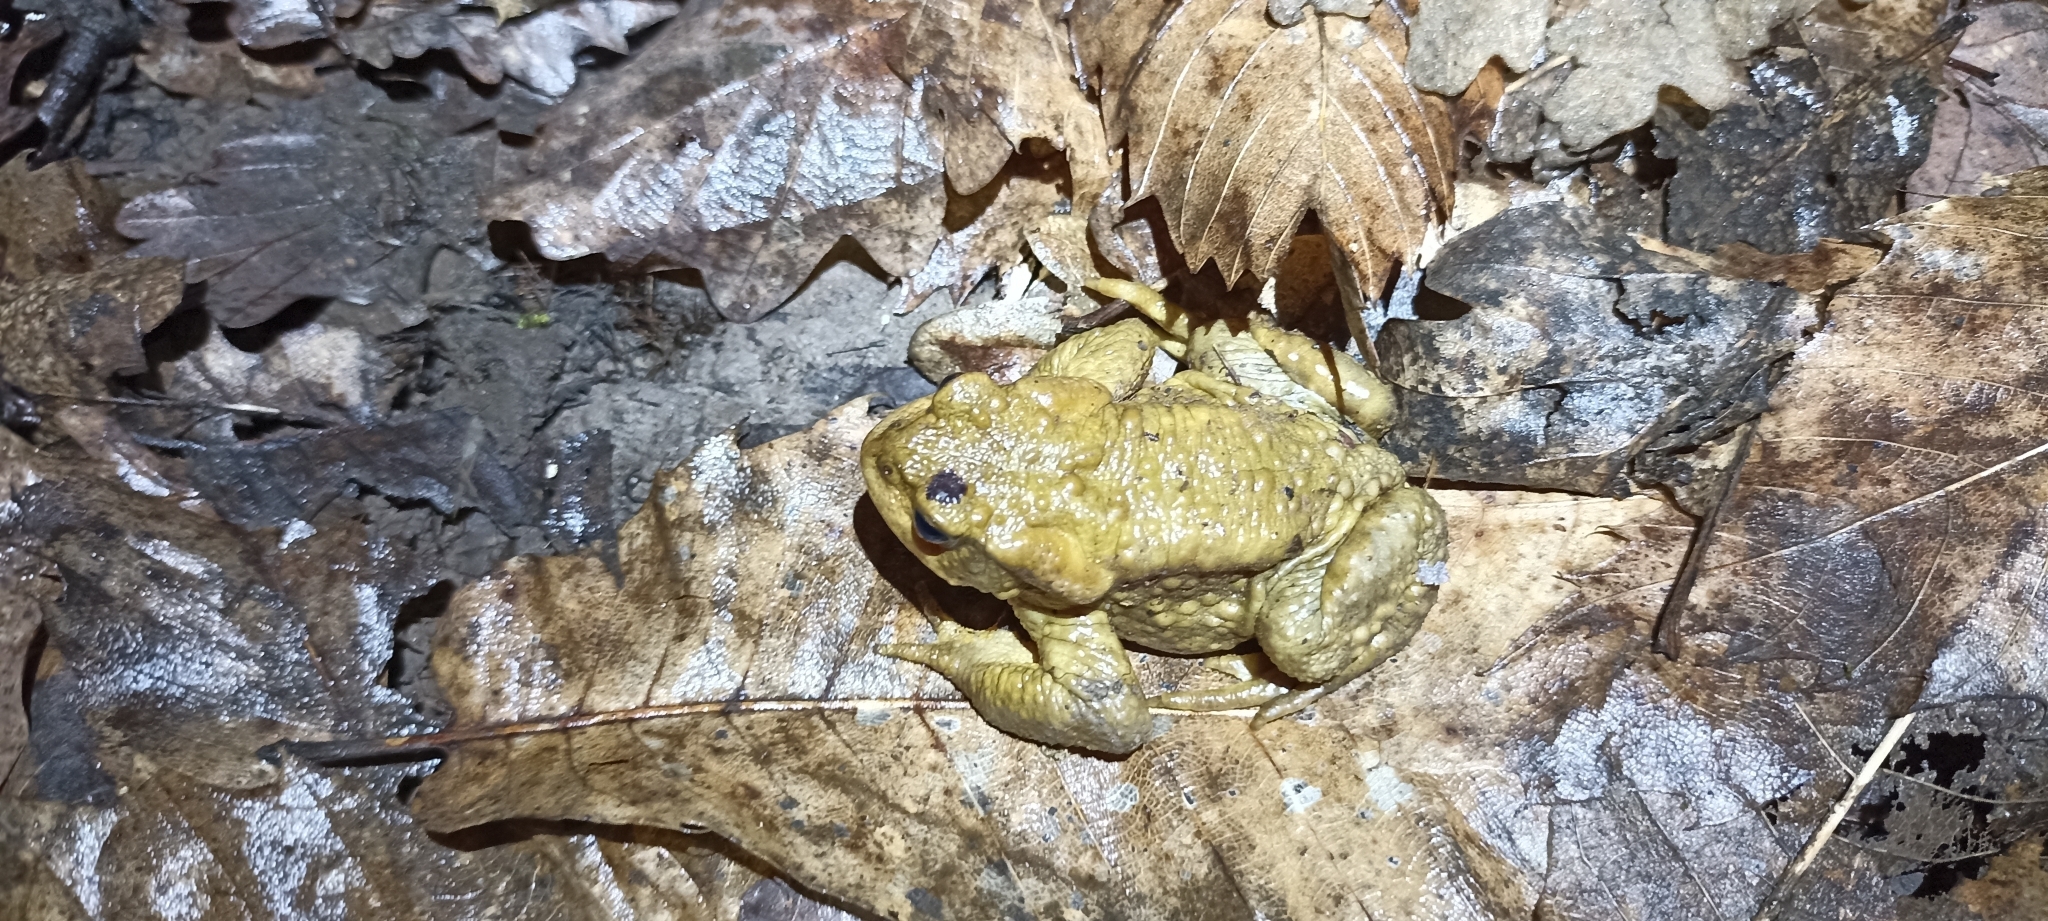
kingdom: Animalia
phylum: Chordata
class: Amphibia
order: Anura
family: Bufonidae
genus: Bufo
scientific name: Bufo spinosus
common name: Western common toad
